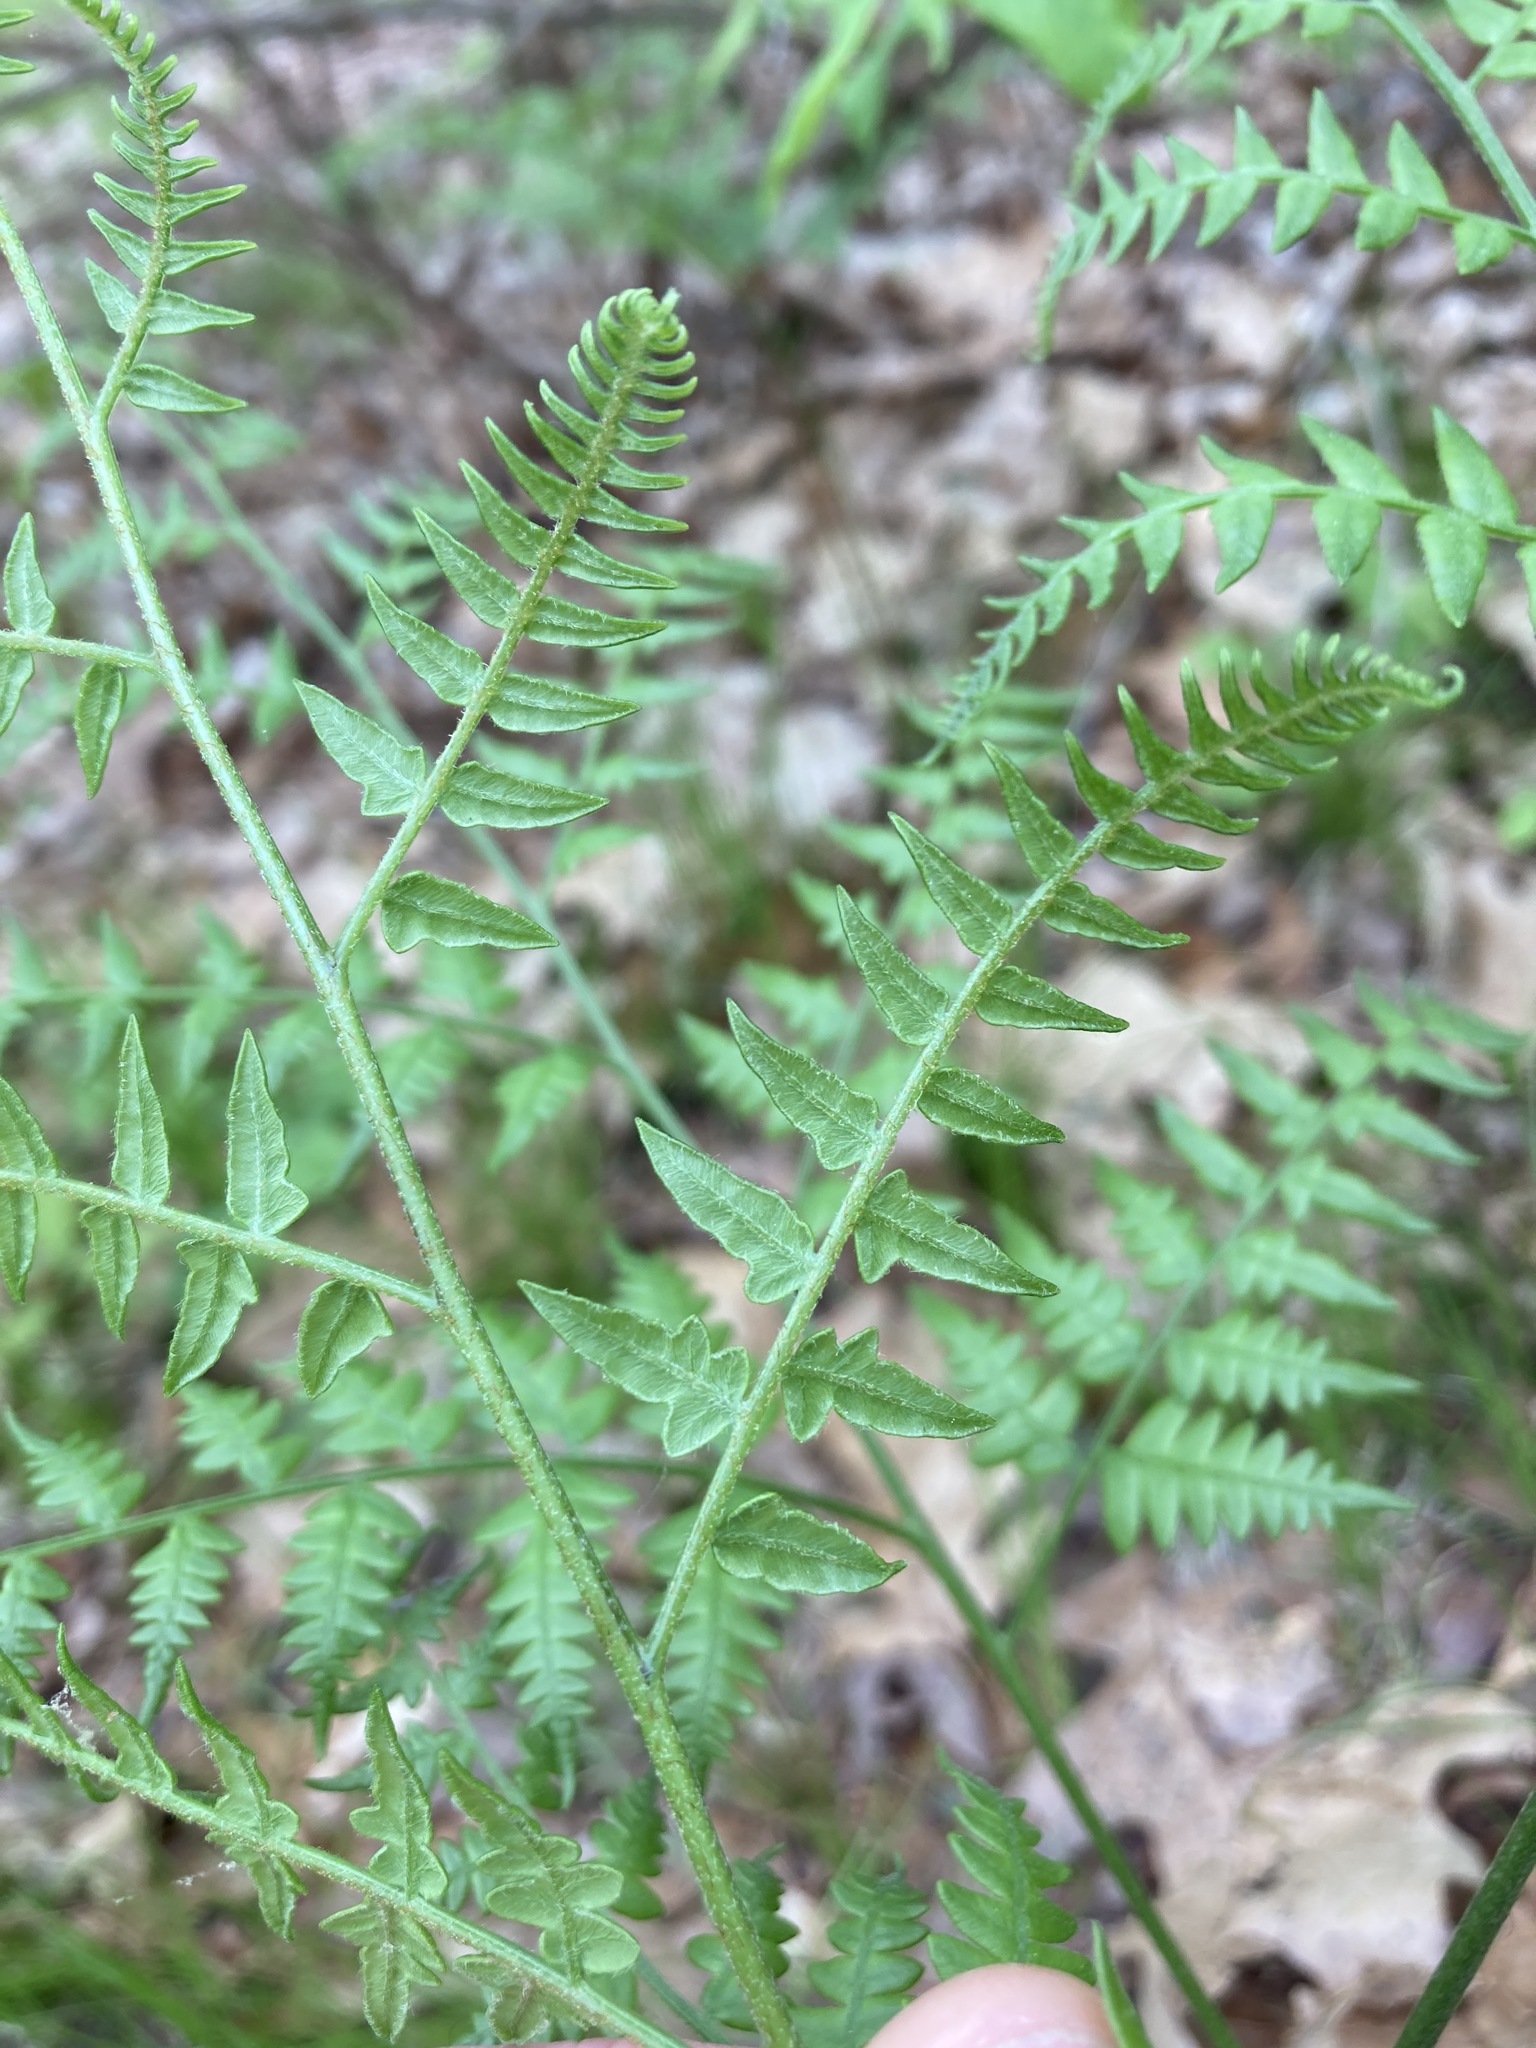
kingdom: Plantae
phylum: Tracheophyta
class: Polypodiopsida
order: Polypodiales
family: Dennstaedtiaceae
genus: Pteridium
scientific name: Pteridium aquilinum
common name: Bracken
